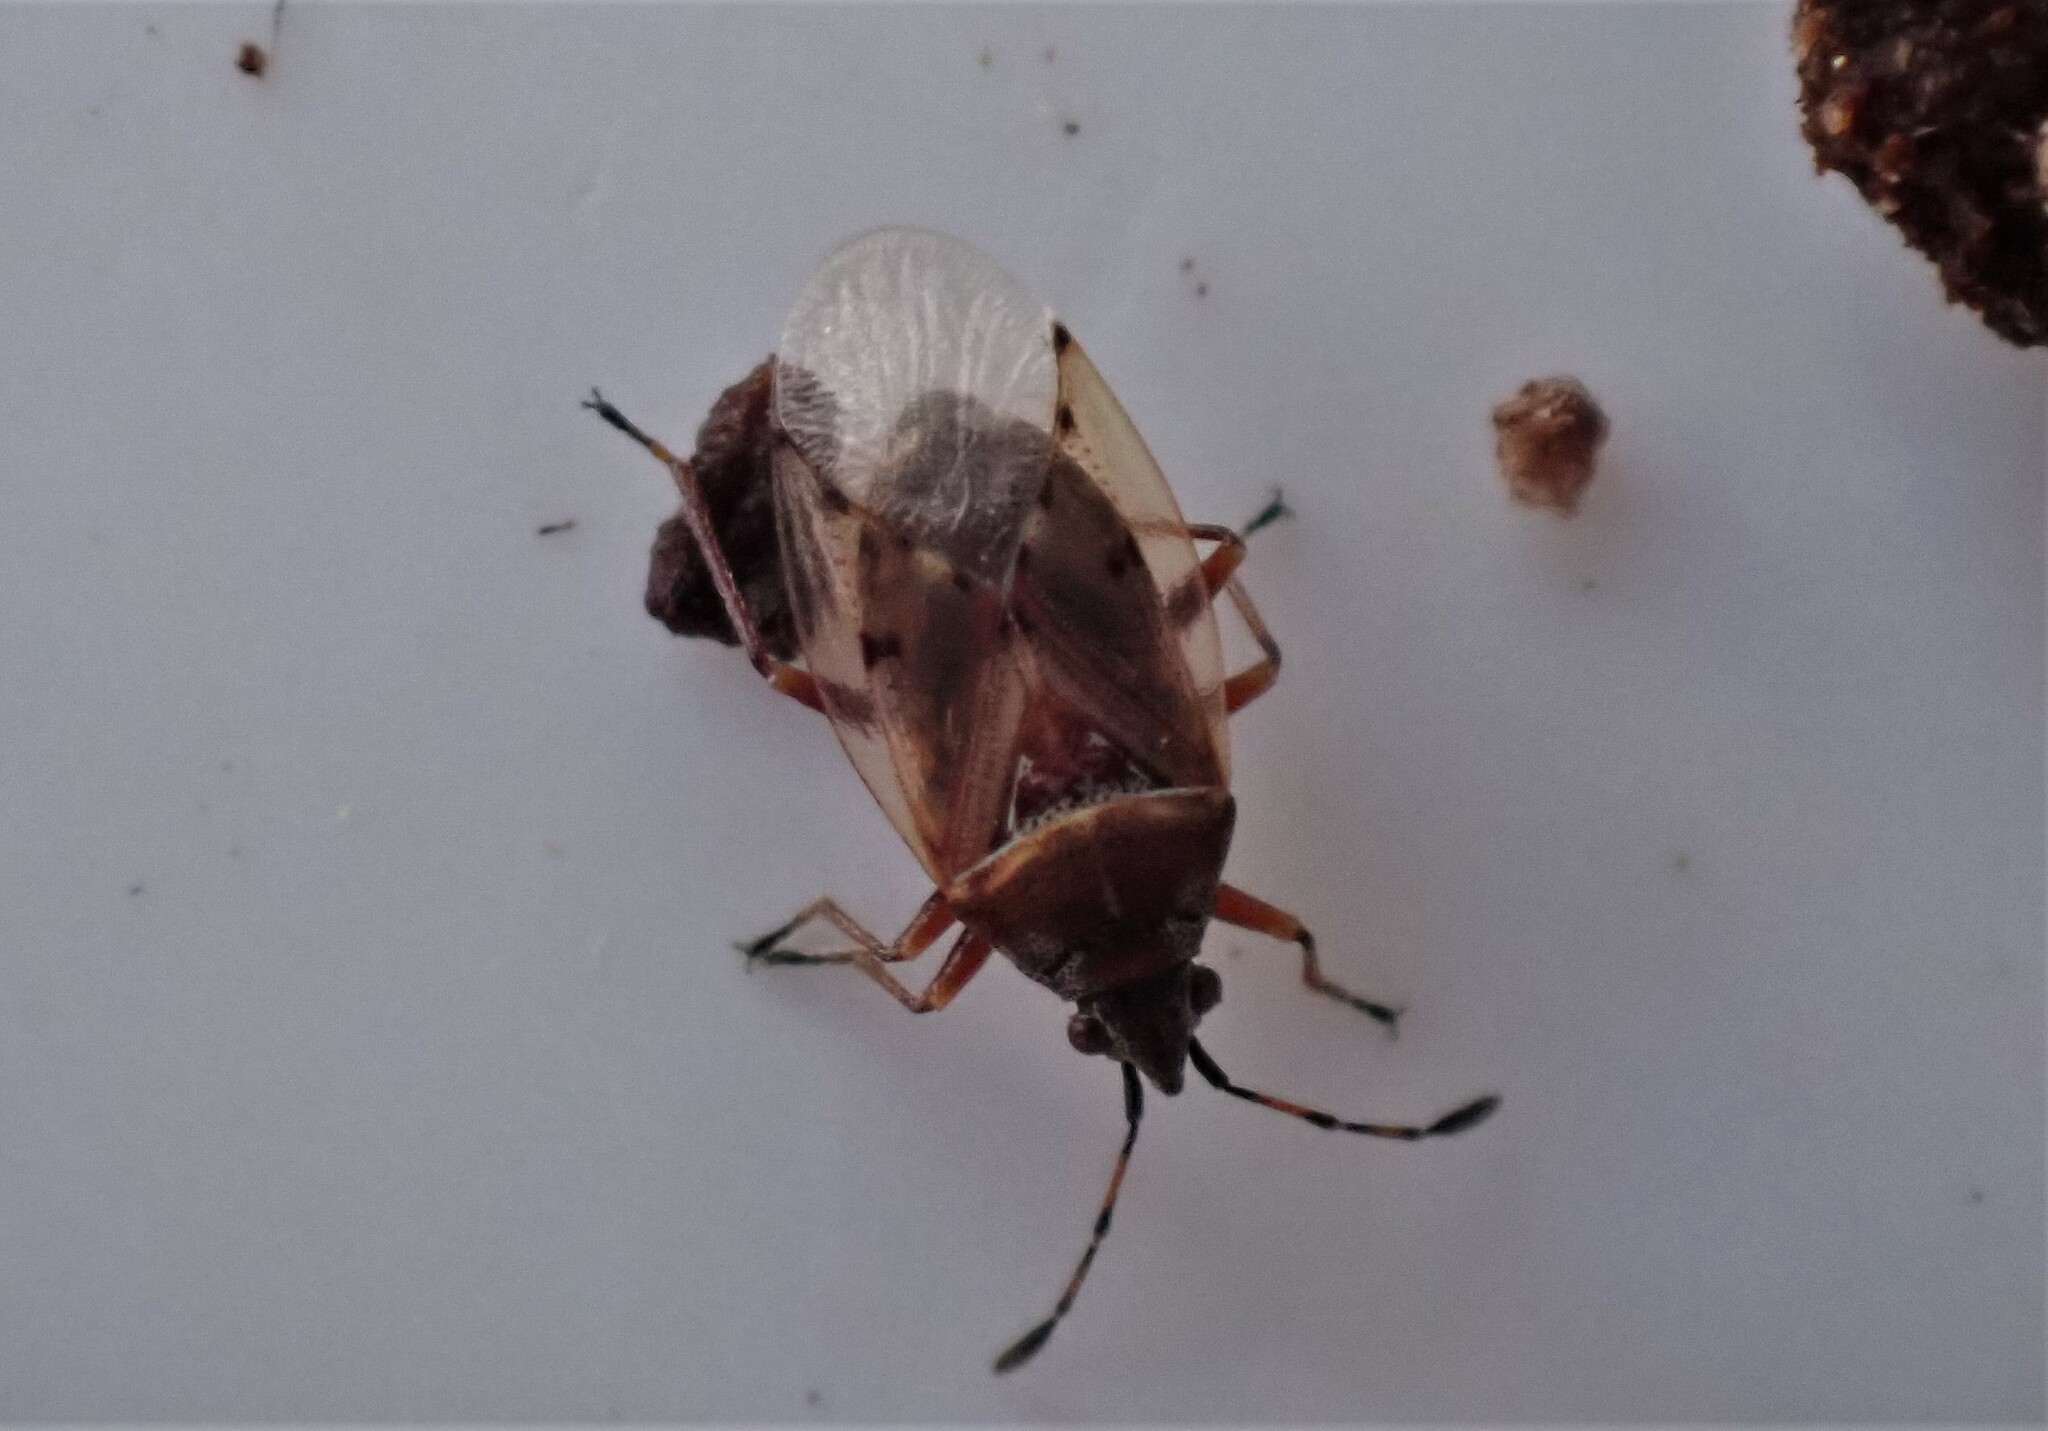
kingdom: Animalia
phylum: Arthropoda
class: Insecta
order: Hemiptera
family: Lygaeidae
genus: Kleidocerys
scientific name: Kleidocerys resedae
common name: Birch catkin bug
